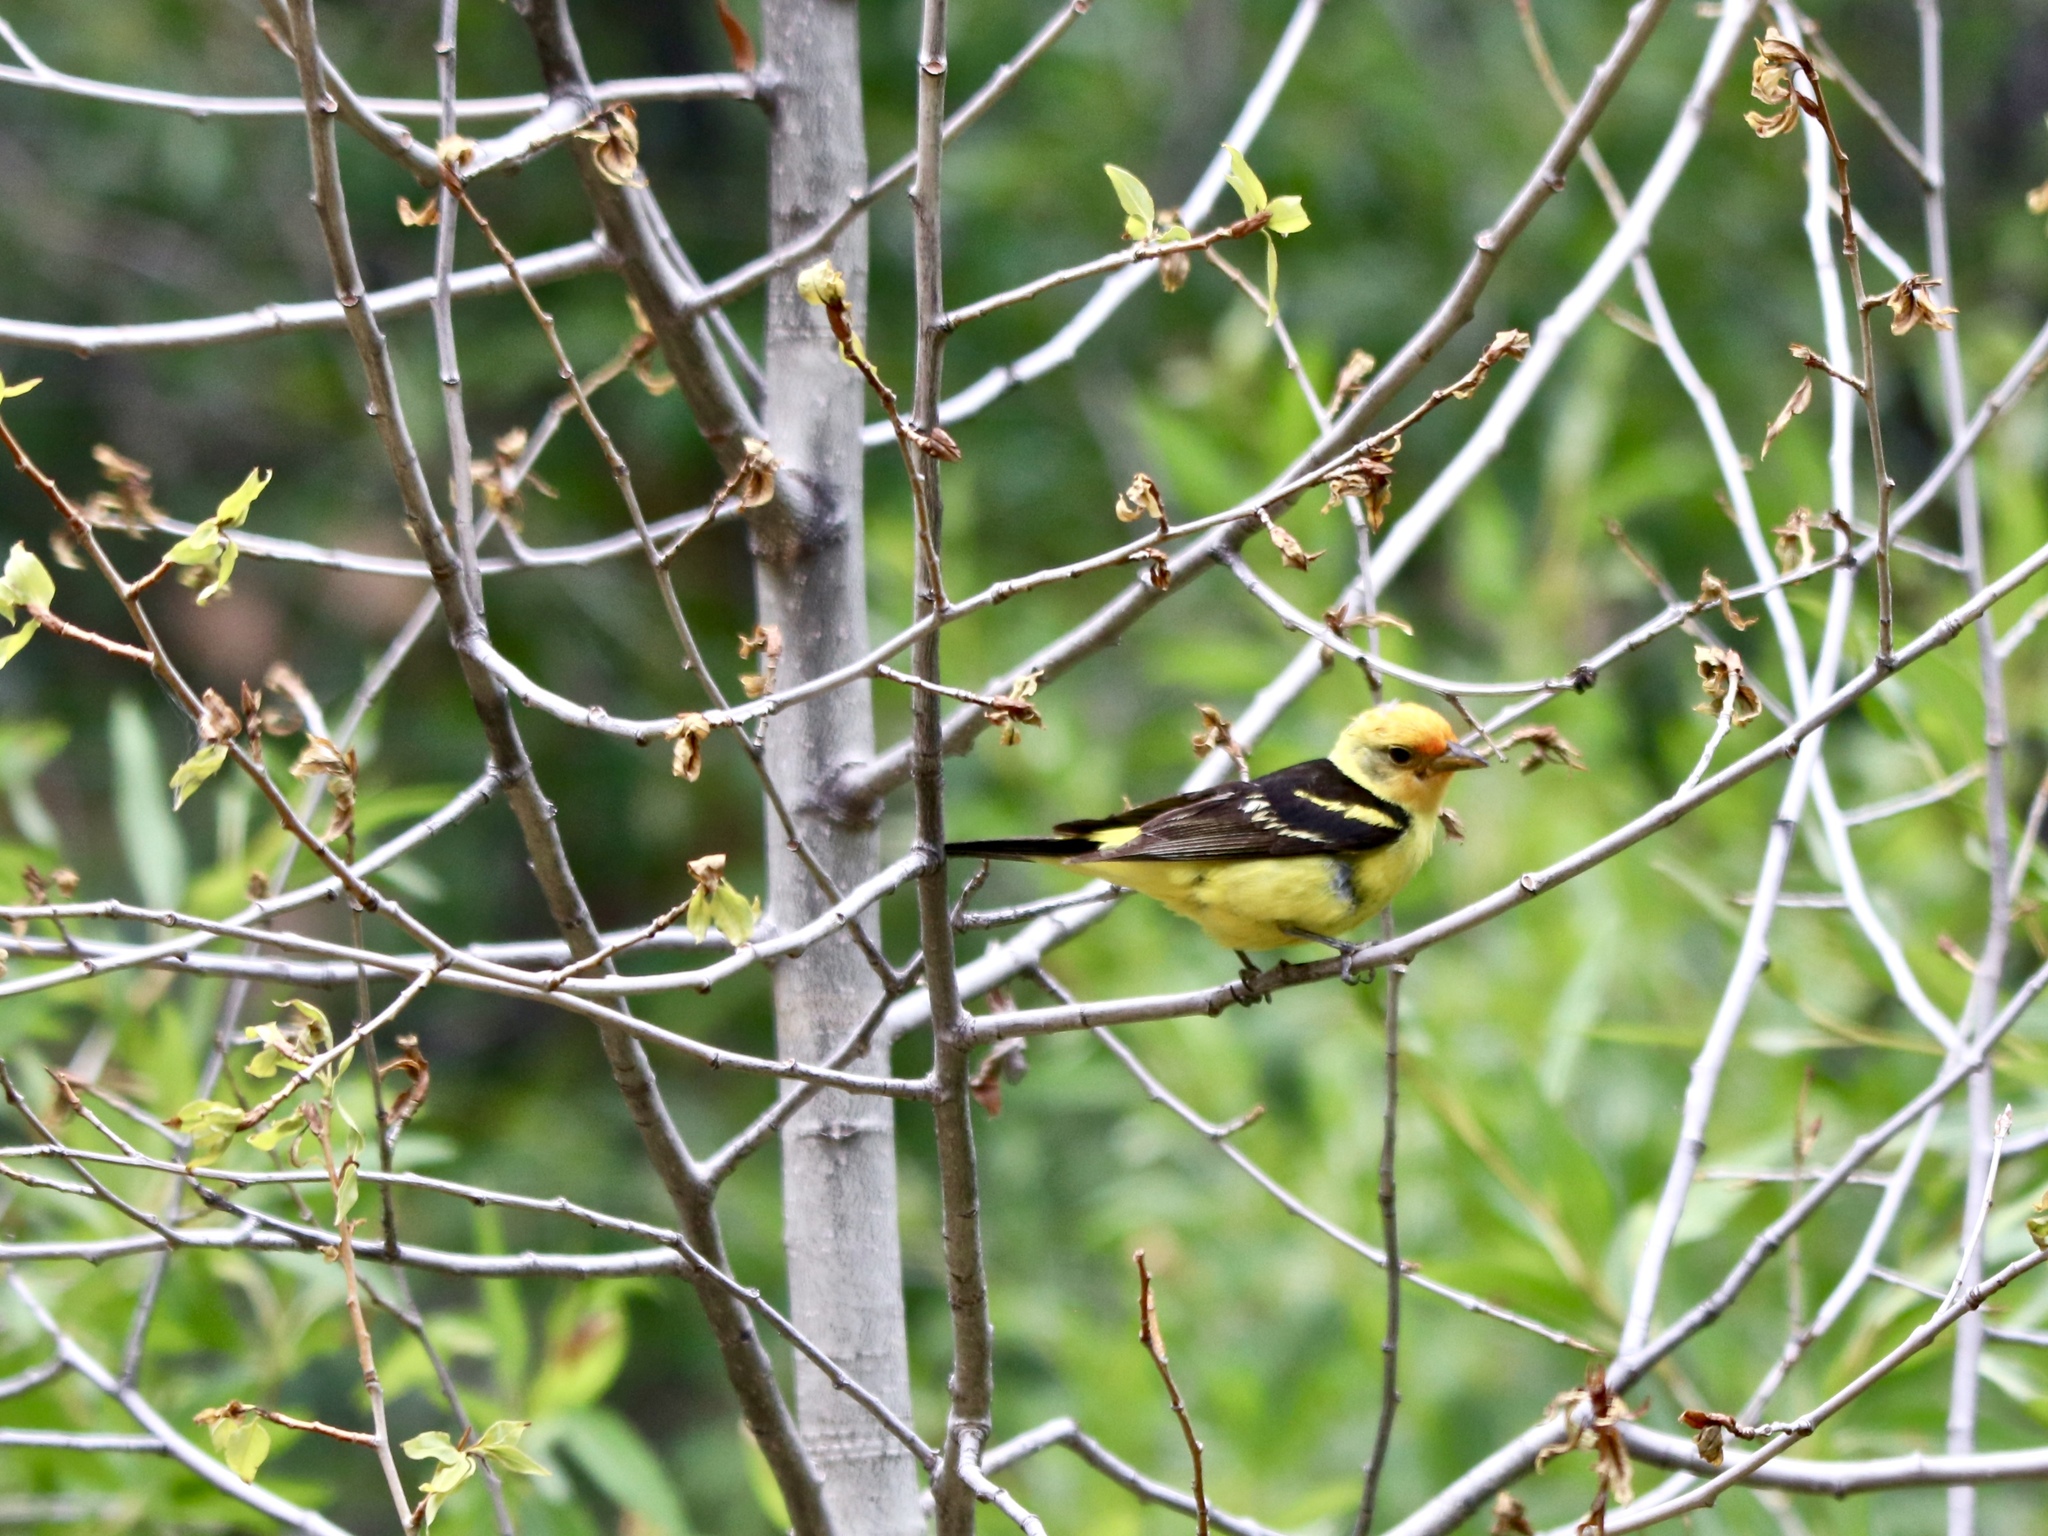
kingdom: Animalia
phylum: Chordata
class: Aves
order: Passeriformes
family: Cardinalidae
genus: Piranga
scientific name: Piranga ludoviciana
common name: Western tanager
